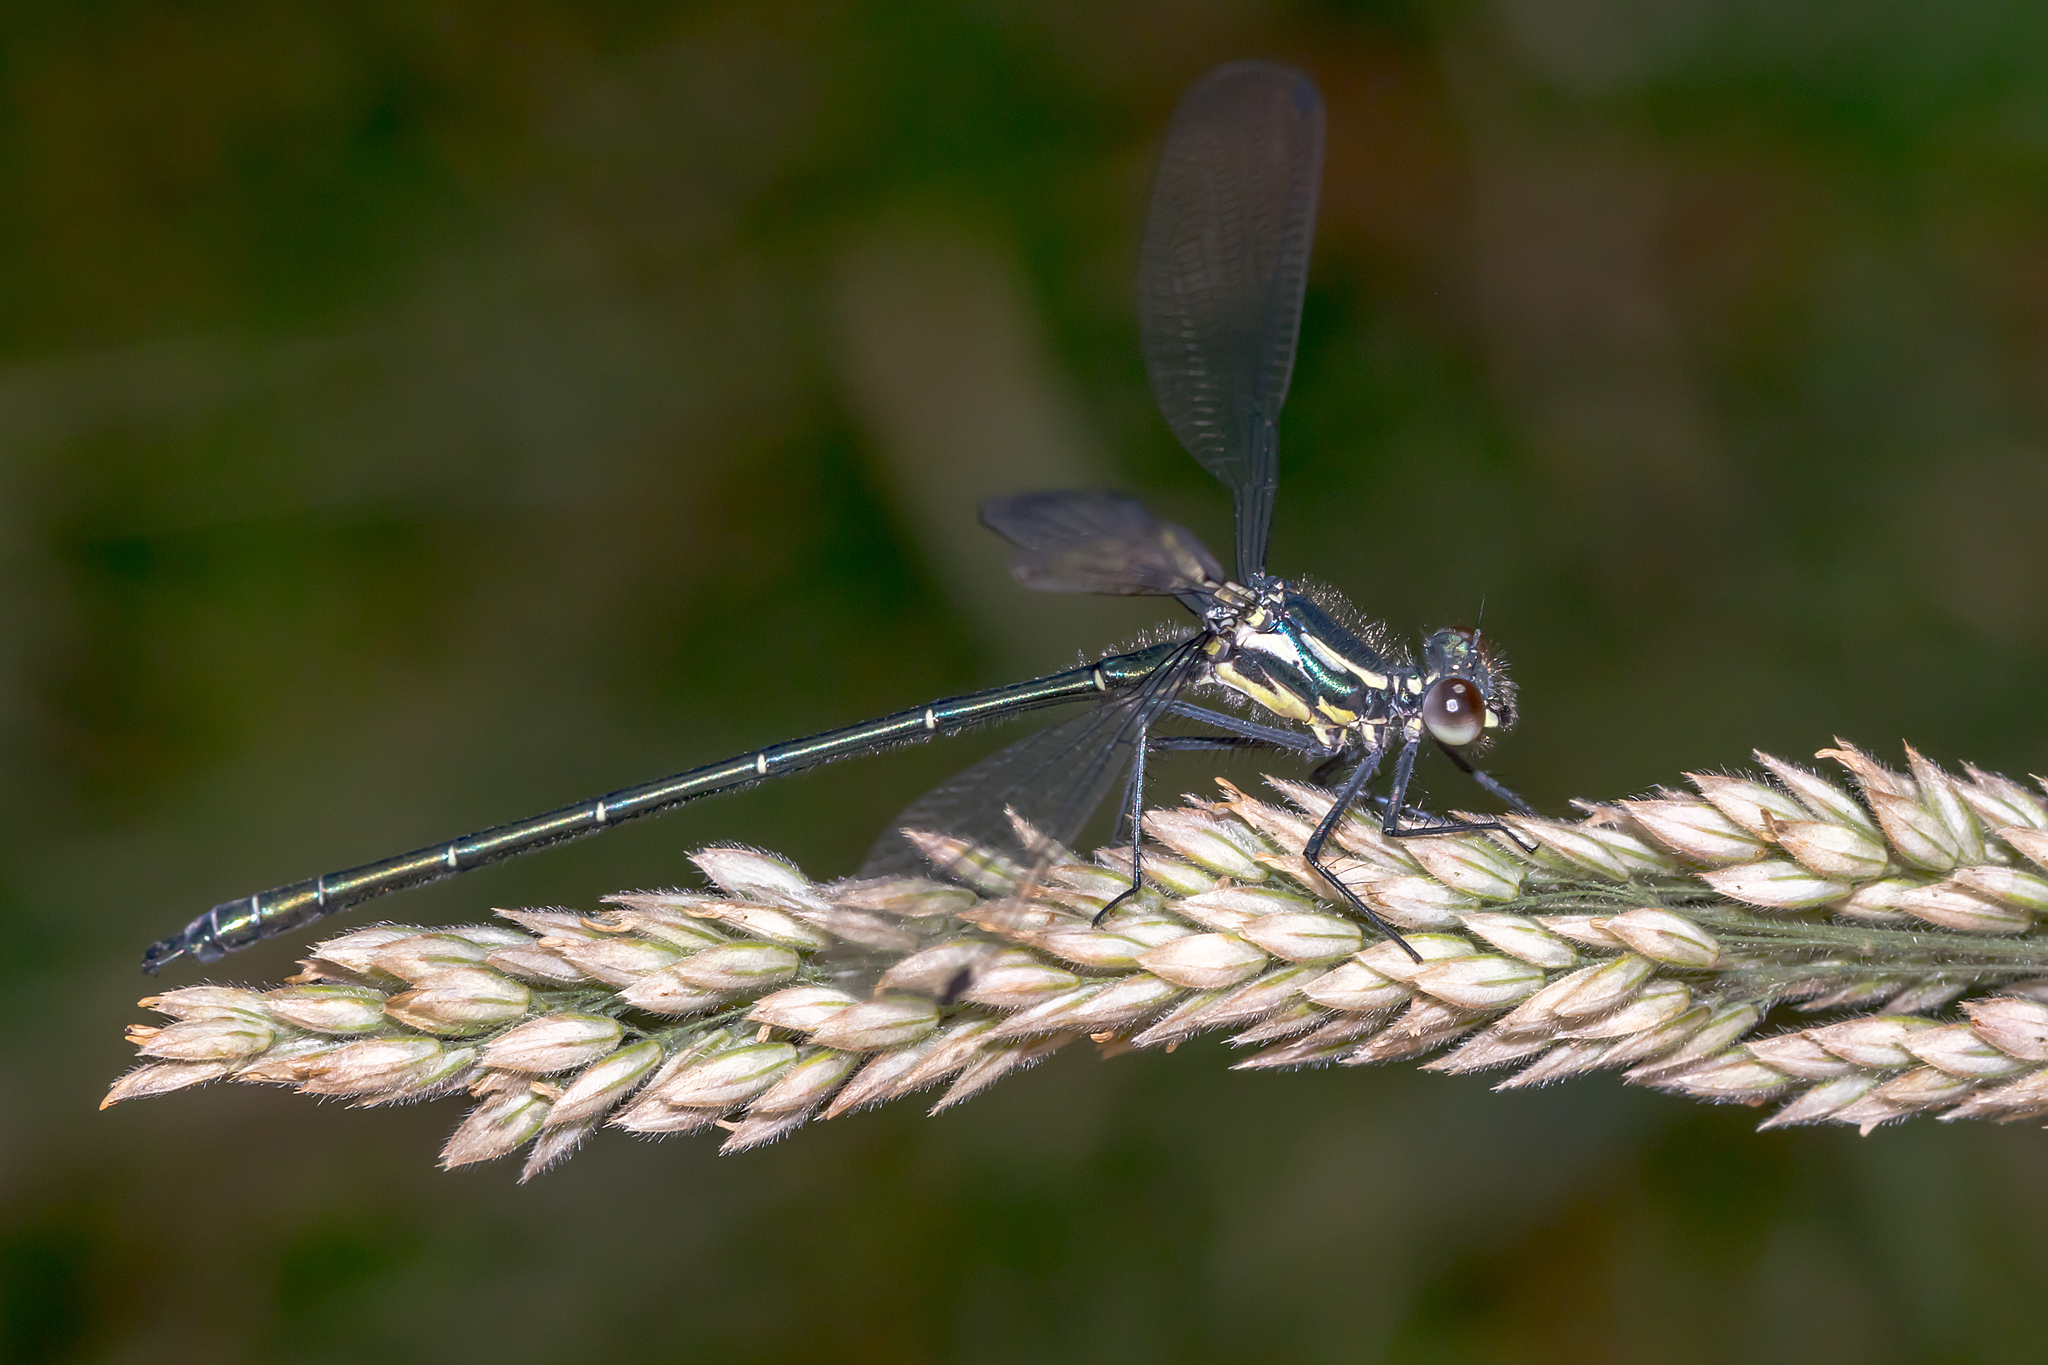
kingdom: Animalia
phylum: Arthropoda
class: Insecta
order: Odonata
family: Argiolestidae
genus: Austroargiolestes
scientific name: Austroargiolestes icteromelas
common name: Common flatwing
